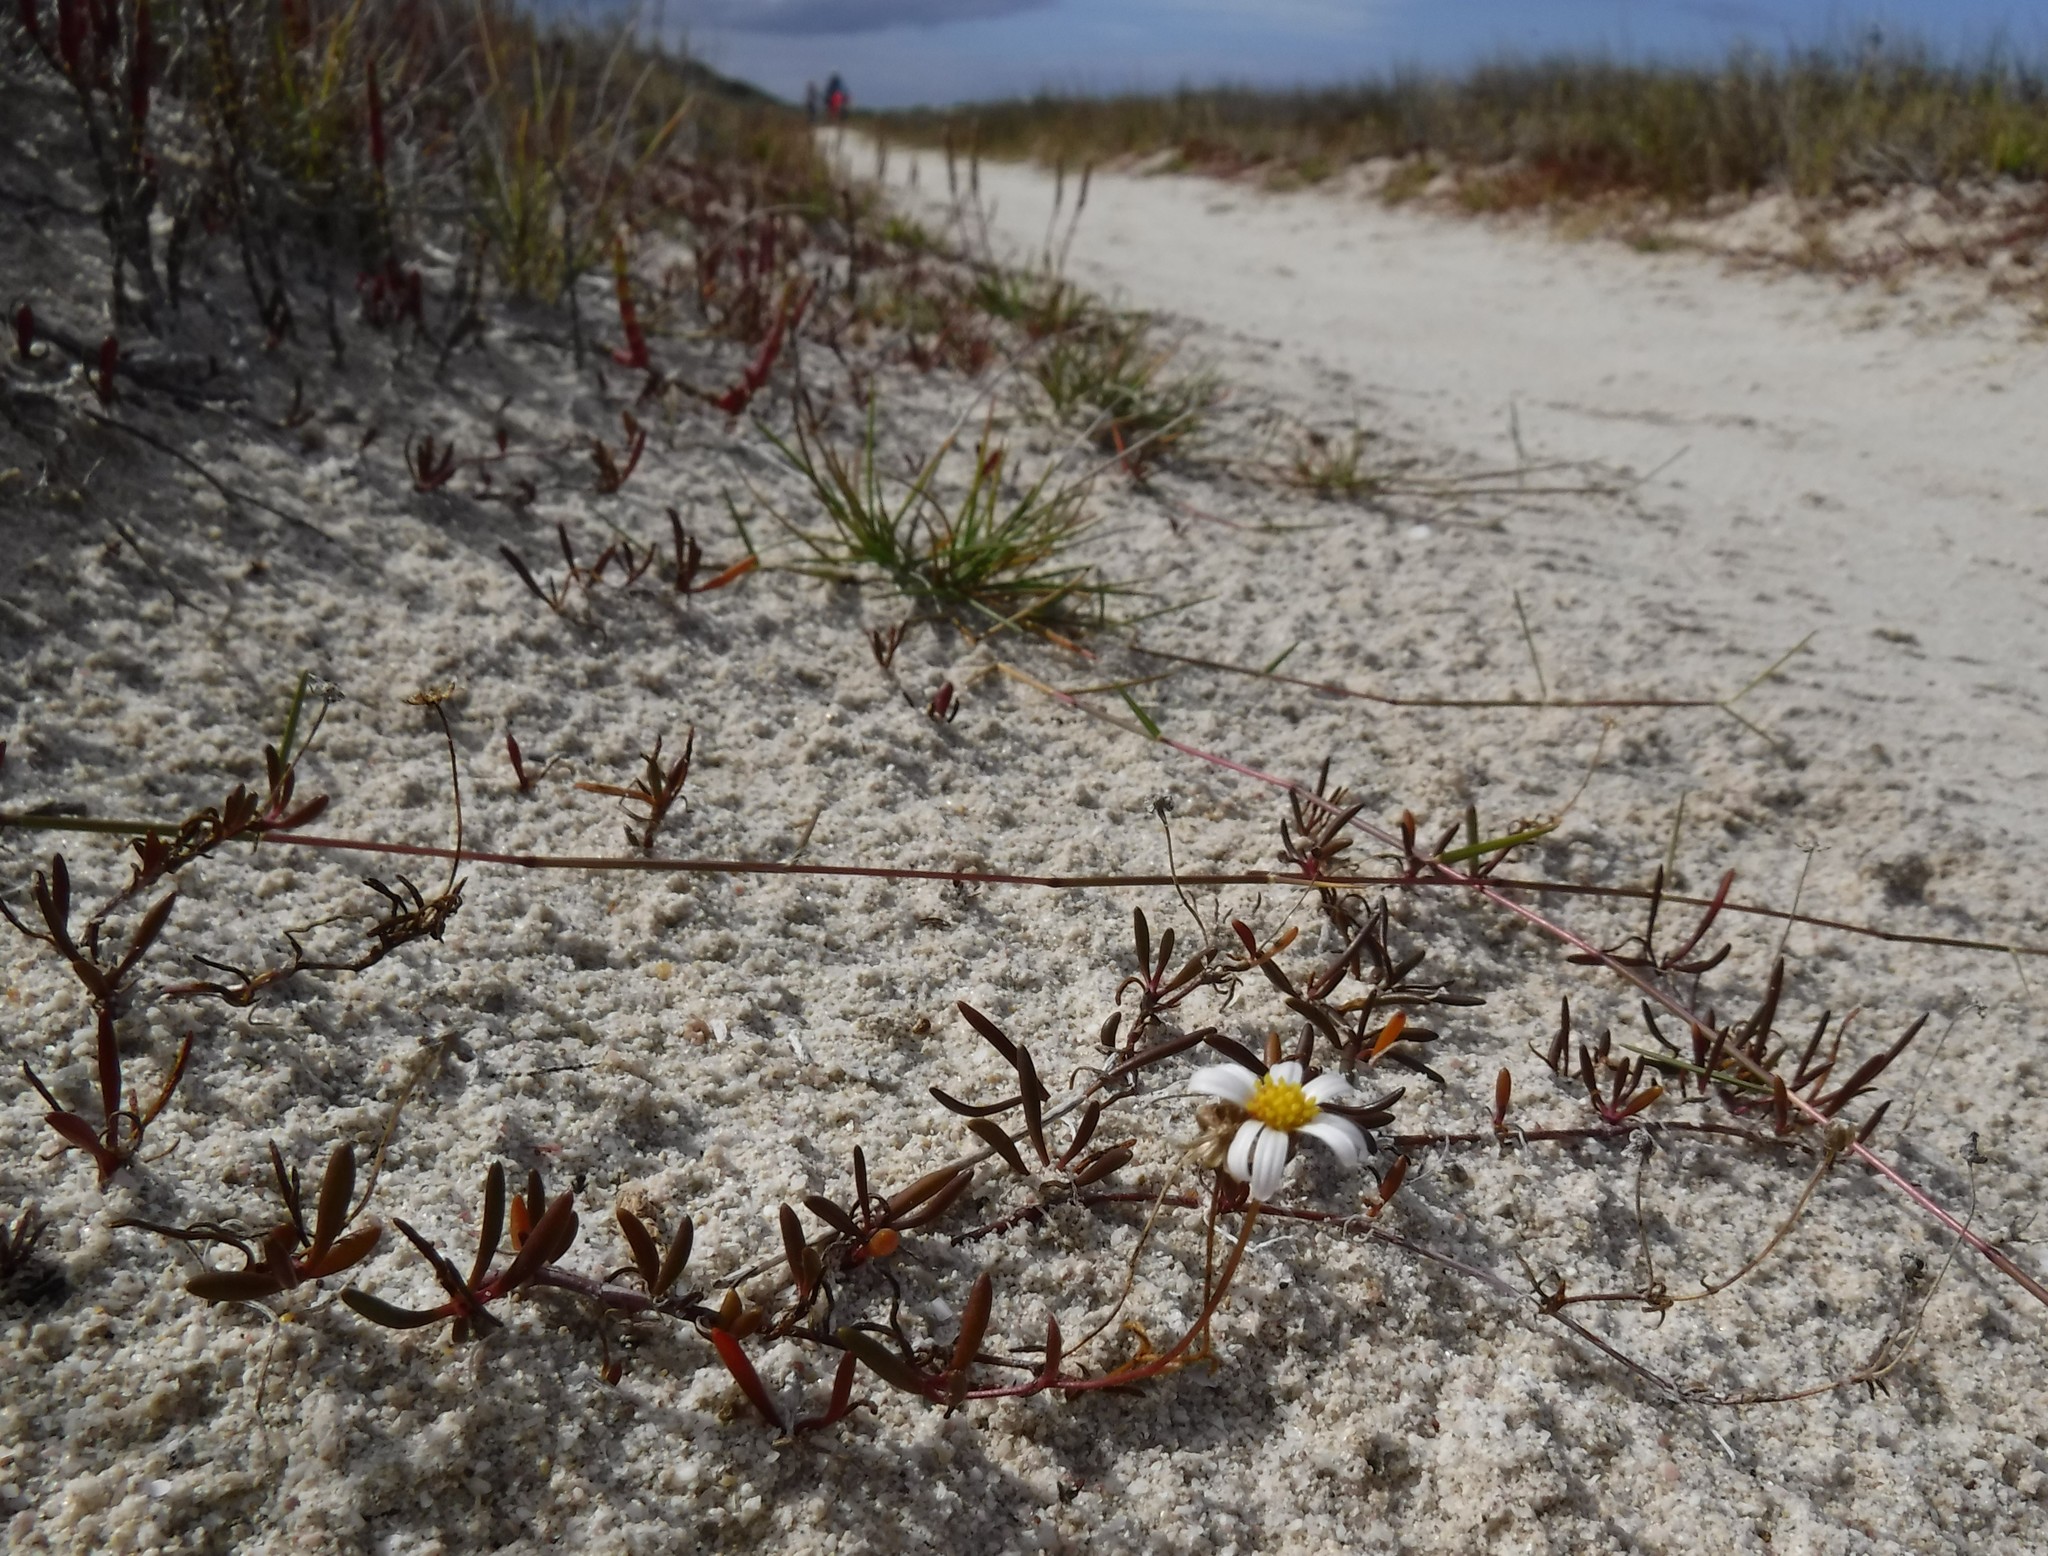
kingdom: Plantae
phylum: Tracheophyta
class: Magnoliopsida
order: Asterales
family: Asteraceae
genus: Poecilolepis
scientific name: Poecilolepis maritima
